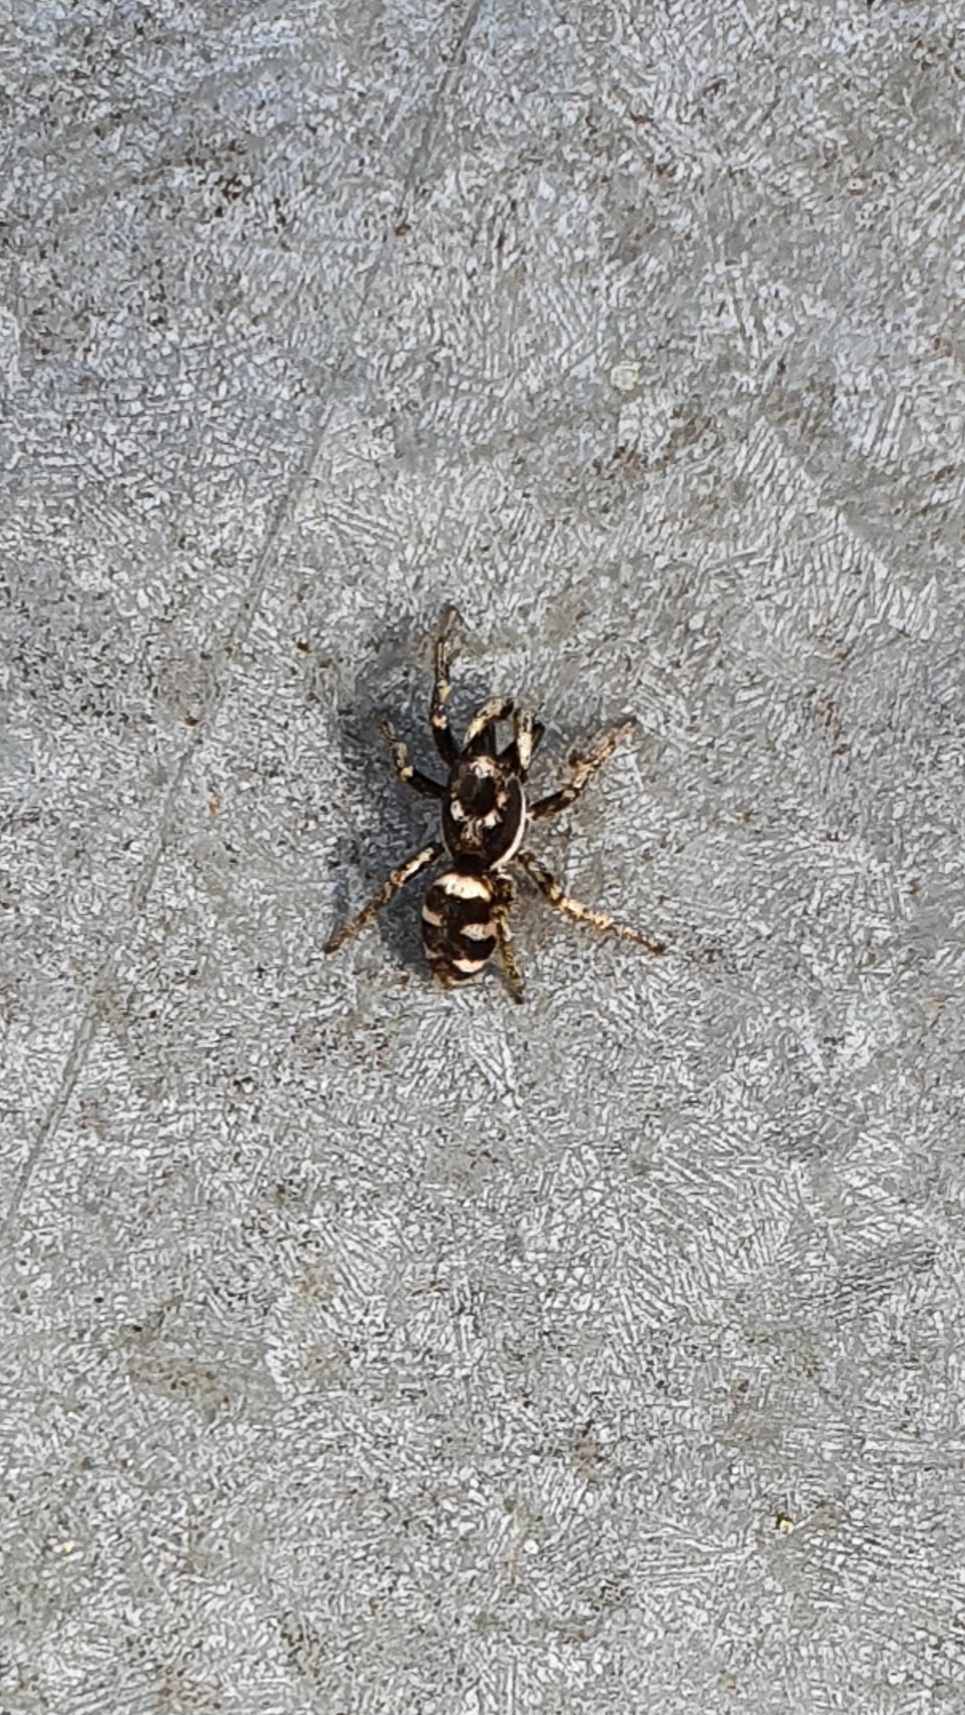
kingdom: Animalia
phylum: Arthropoda
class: Arachnida
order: Araneae
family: Salticidae
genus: Salticus
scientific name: Salticus scenicus
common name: Zebra jumper
